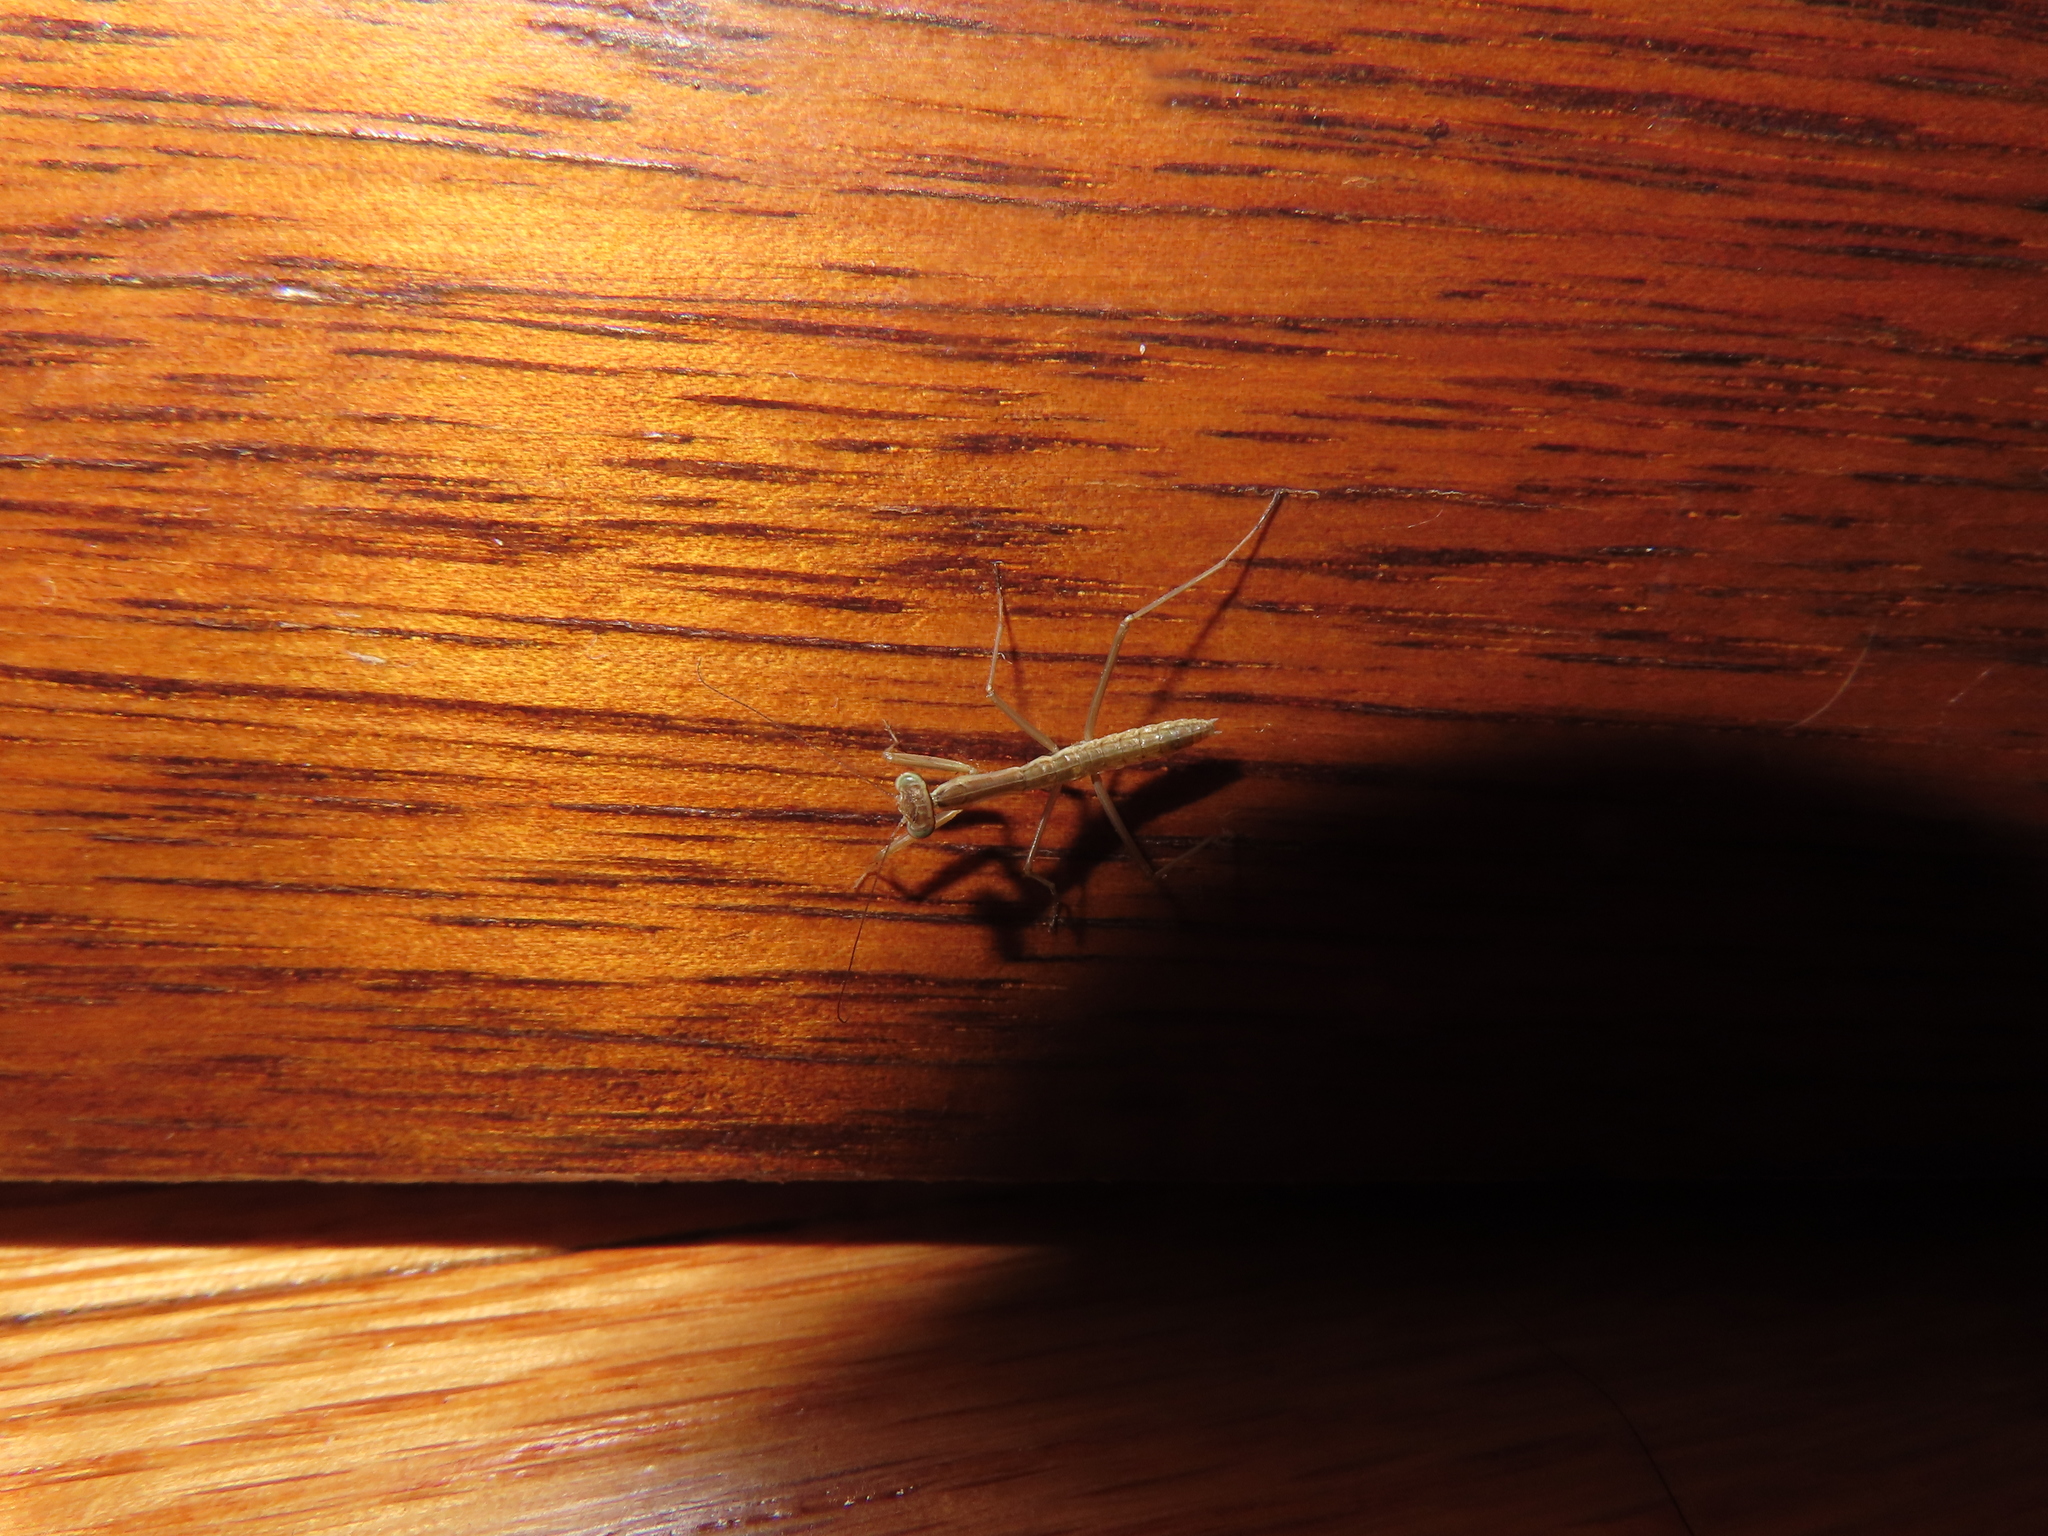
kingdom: Animalia
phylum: Arthropoda
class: Insecta
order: Mantodea
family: Mantidae
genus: Tenodera
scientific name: Tenodera sinensis
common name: Chinese mantis
